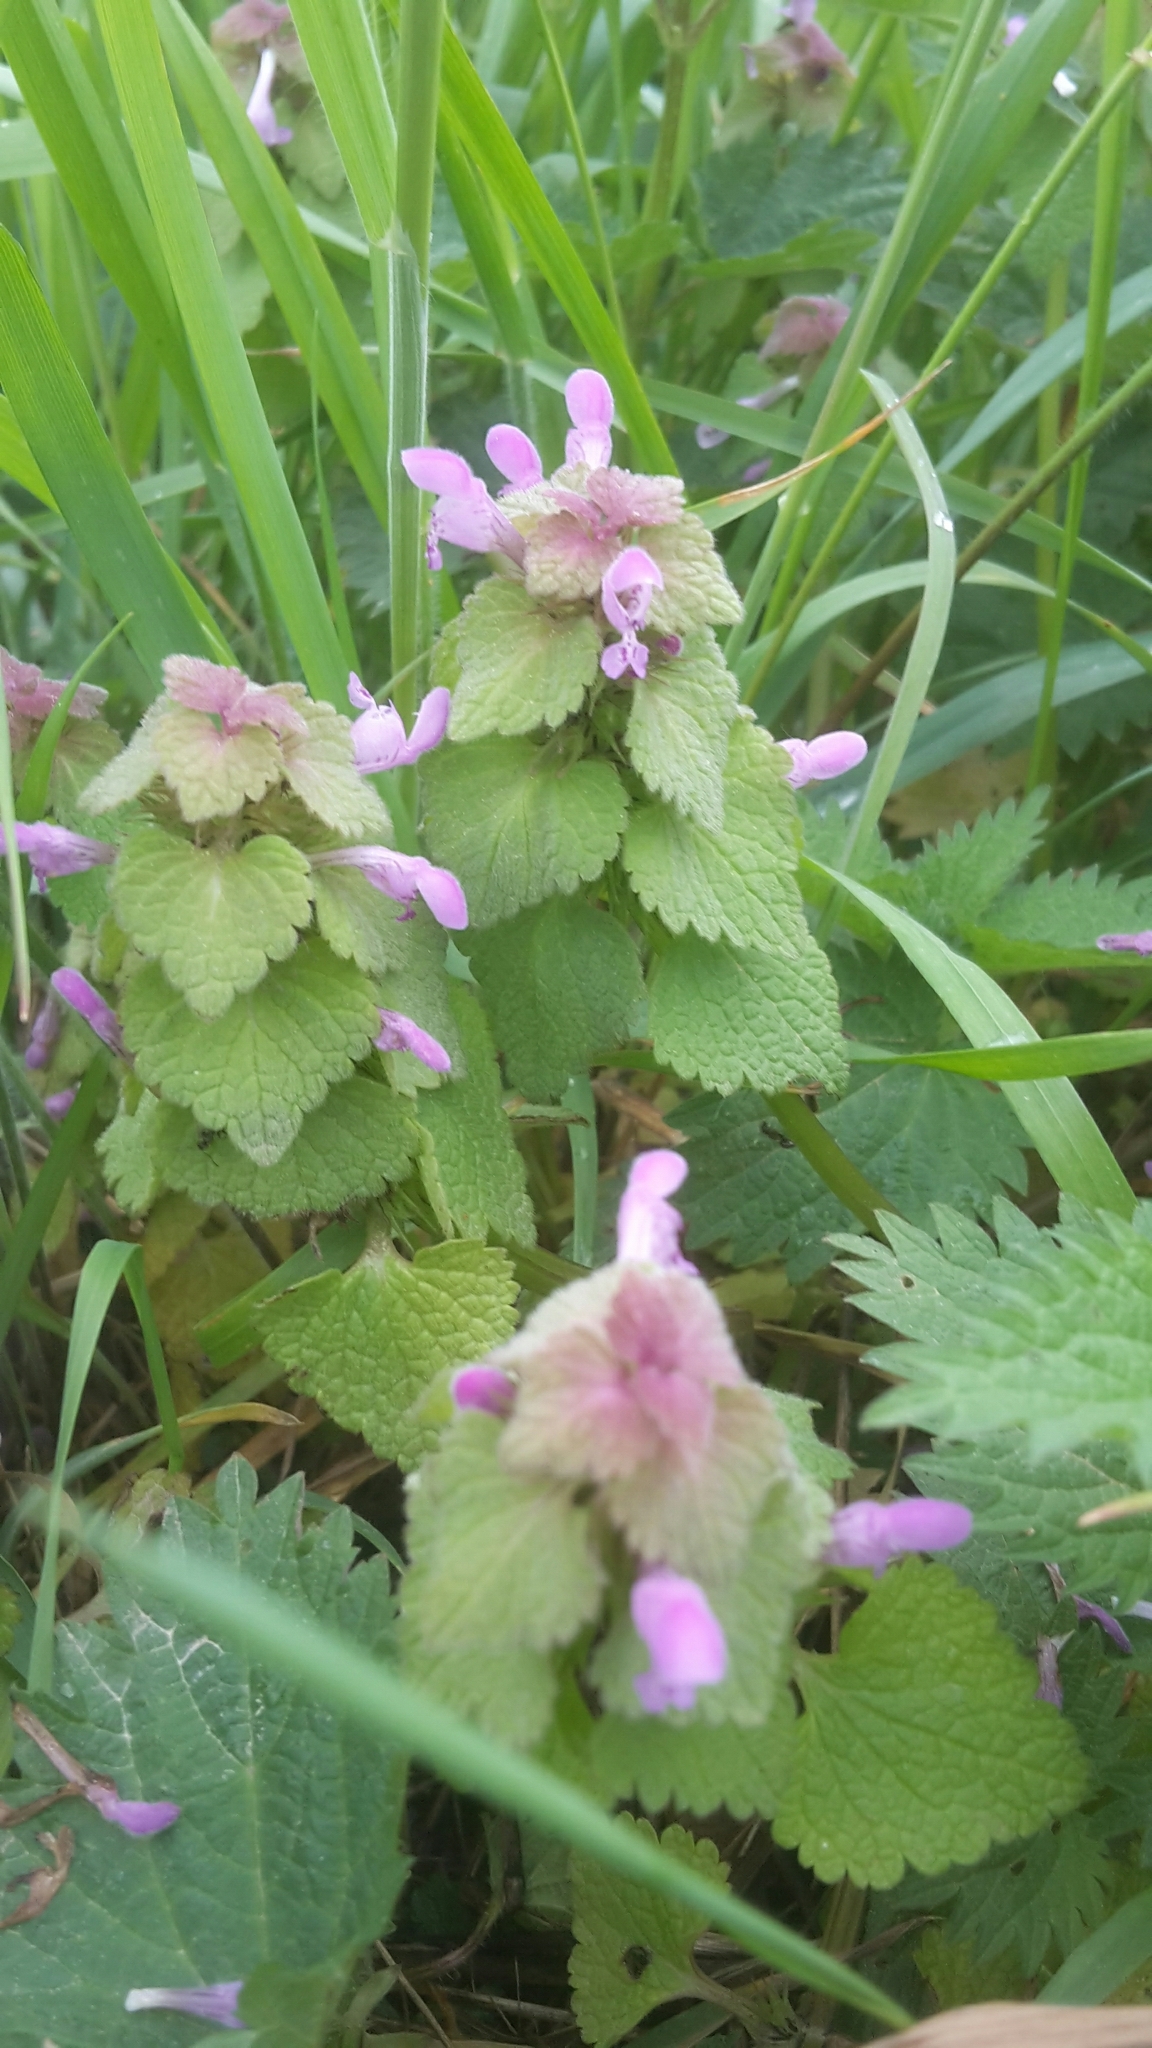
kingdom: Plantae
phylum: Tracheophyta
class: Magnoliopsida
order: Lamiales
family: Lamiaceae
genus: Lamium
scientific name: Lamium purpureum
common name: Red dead-nettle
